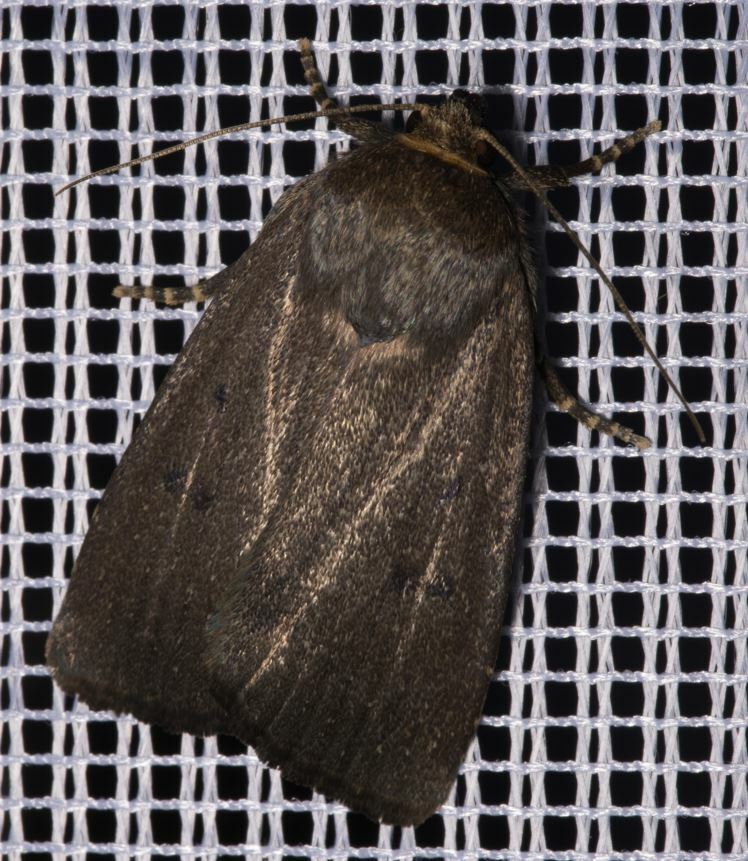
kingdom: Animalia
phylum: Arthropoda
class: Insecta
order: Lepidoptera
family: Noctuidae
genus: Amphipyra
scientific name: Amphipyra tragopoginis
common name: Mouse moth
